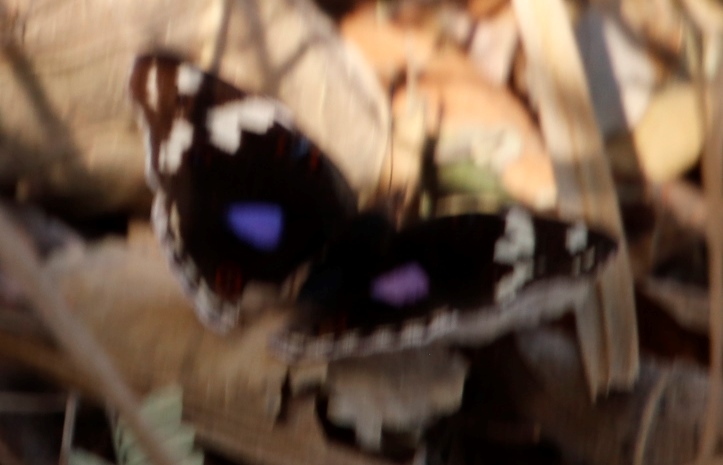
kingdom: Animalia
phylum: Arthropoda
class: Insecta
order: Lepidoptera
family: Nymphalidae
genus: Junonia
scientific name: Junonia oenone
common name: Dark blue pansy
